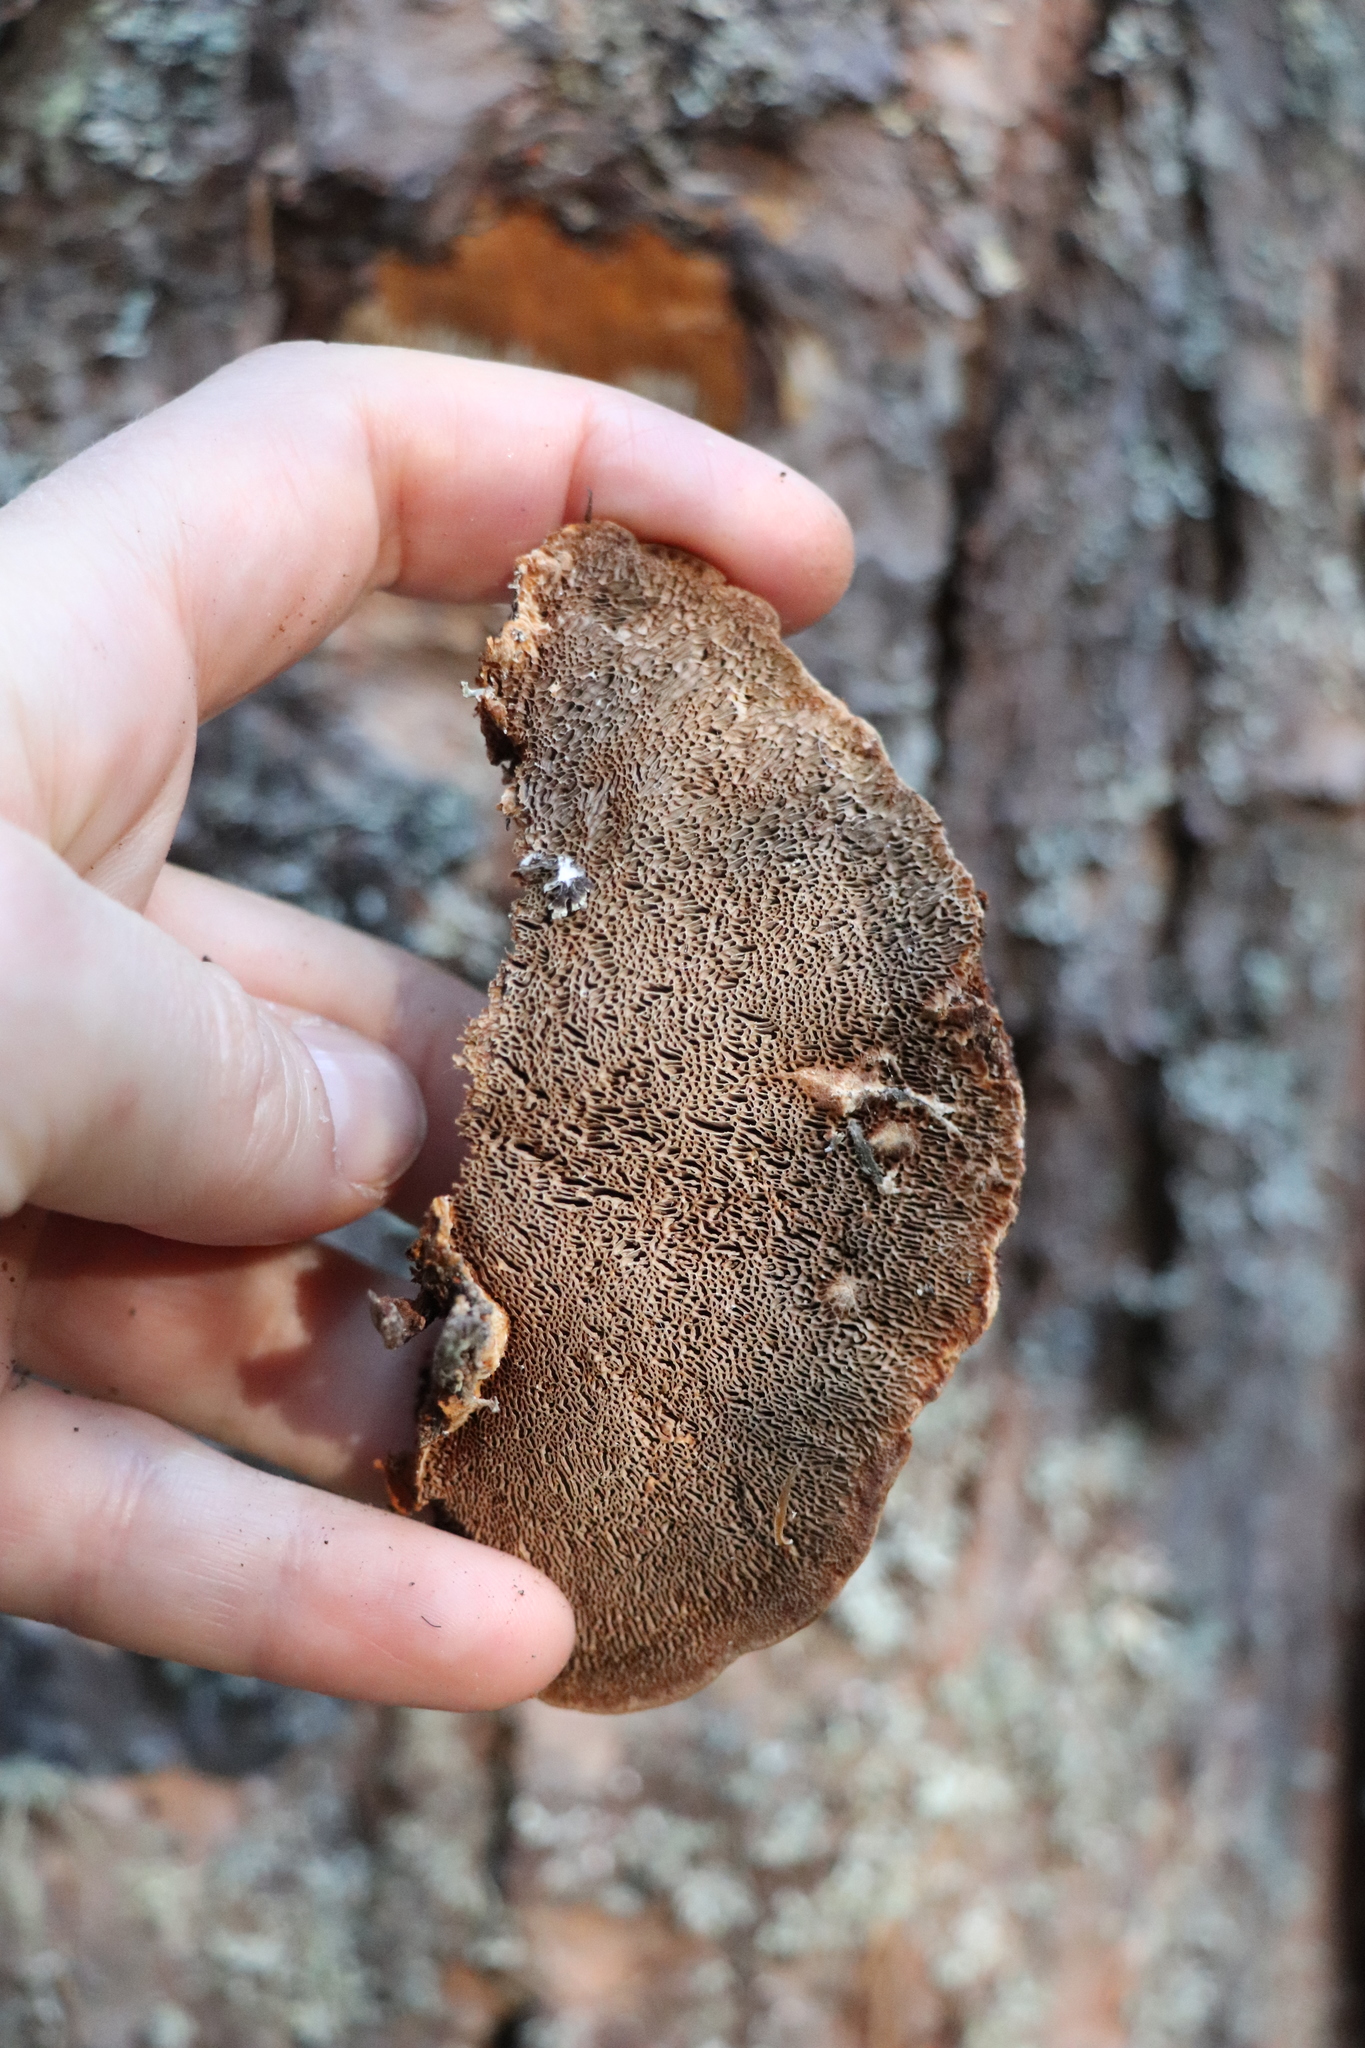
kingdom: Fungi
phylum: Basidiomycota
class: Agaricomycetes
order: Hymenochaetales
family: Hymenochaetaceae
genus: Porodaedalea
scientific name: Porodaedalea pini
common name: Pine bracket
